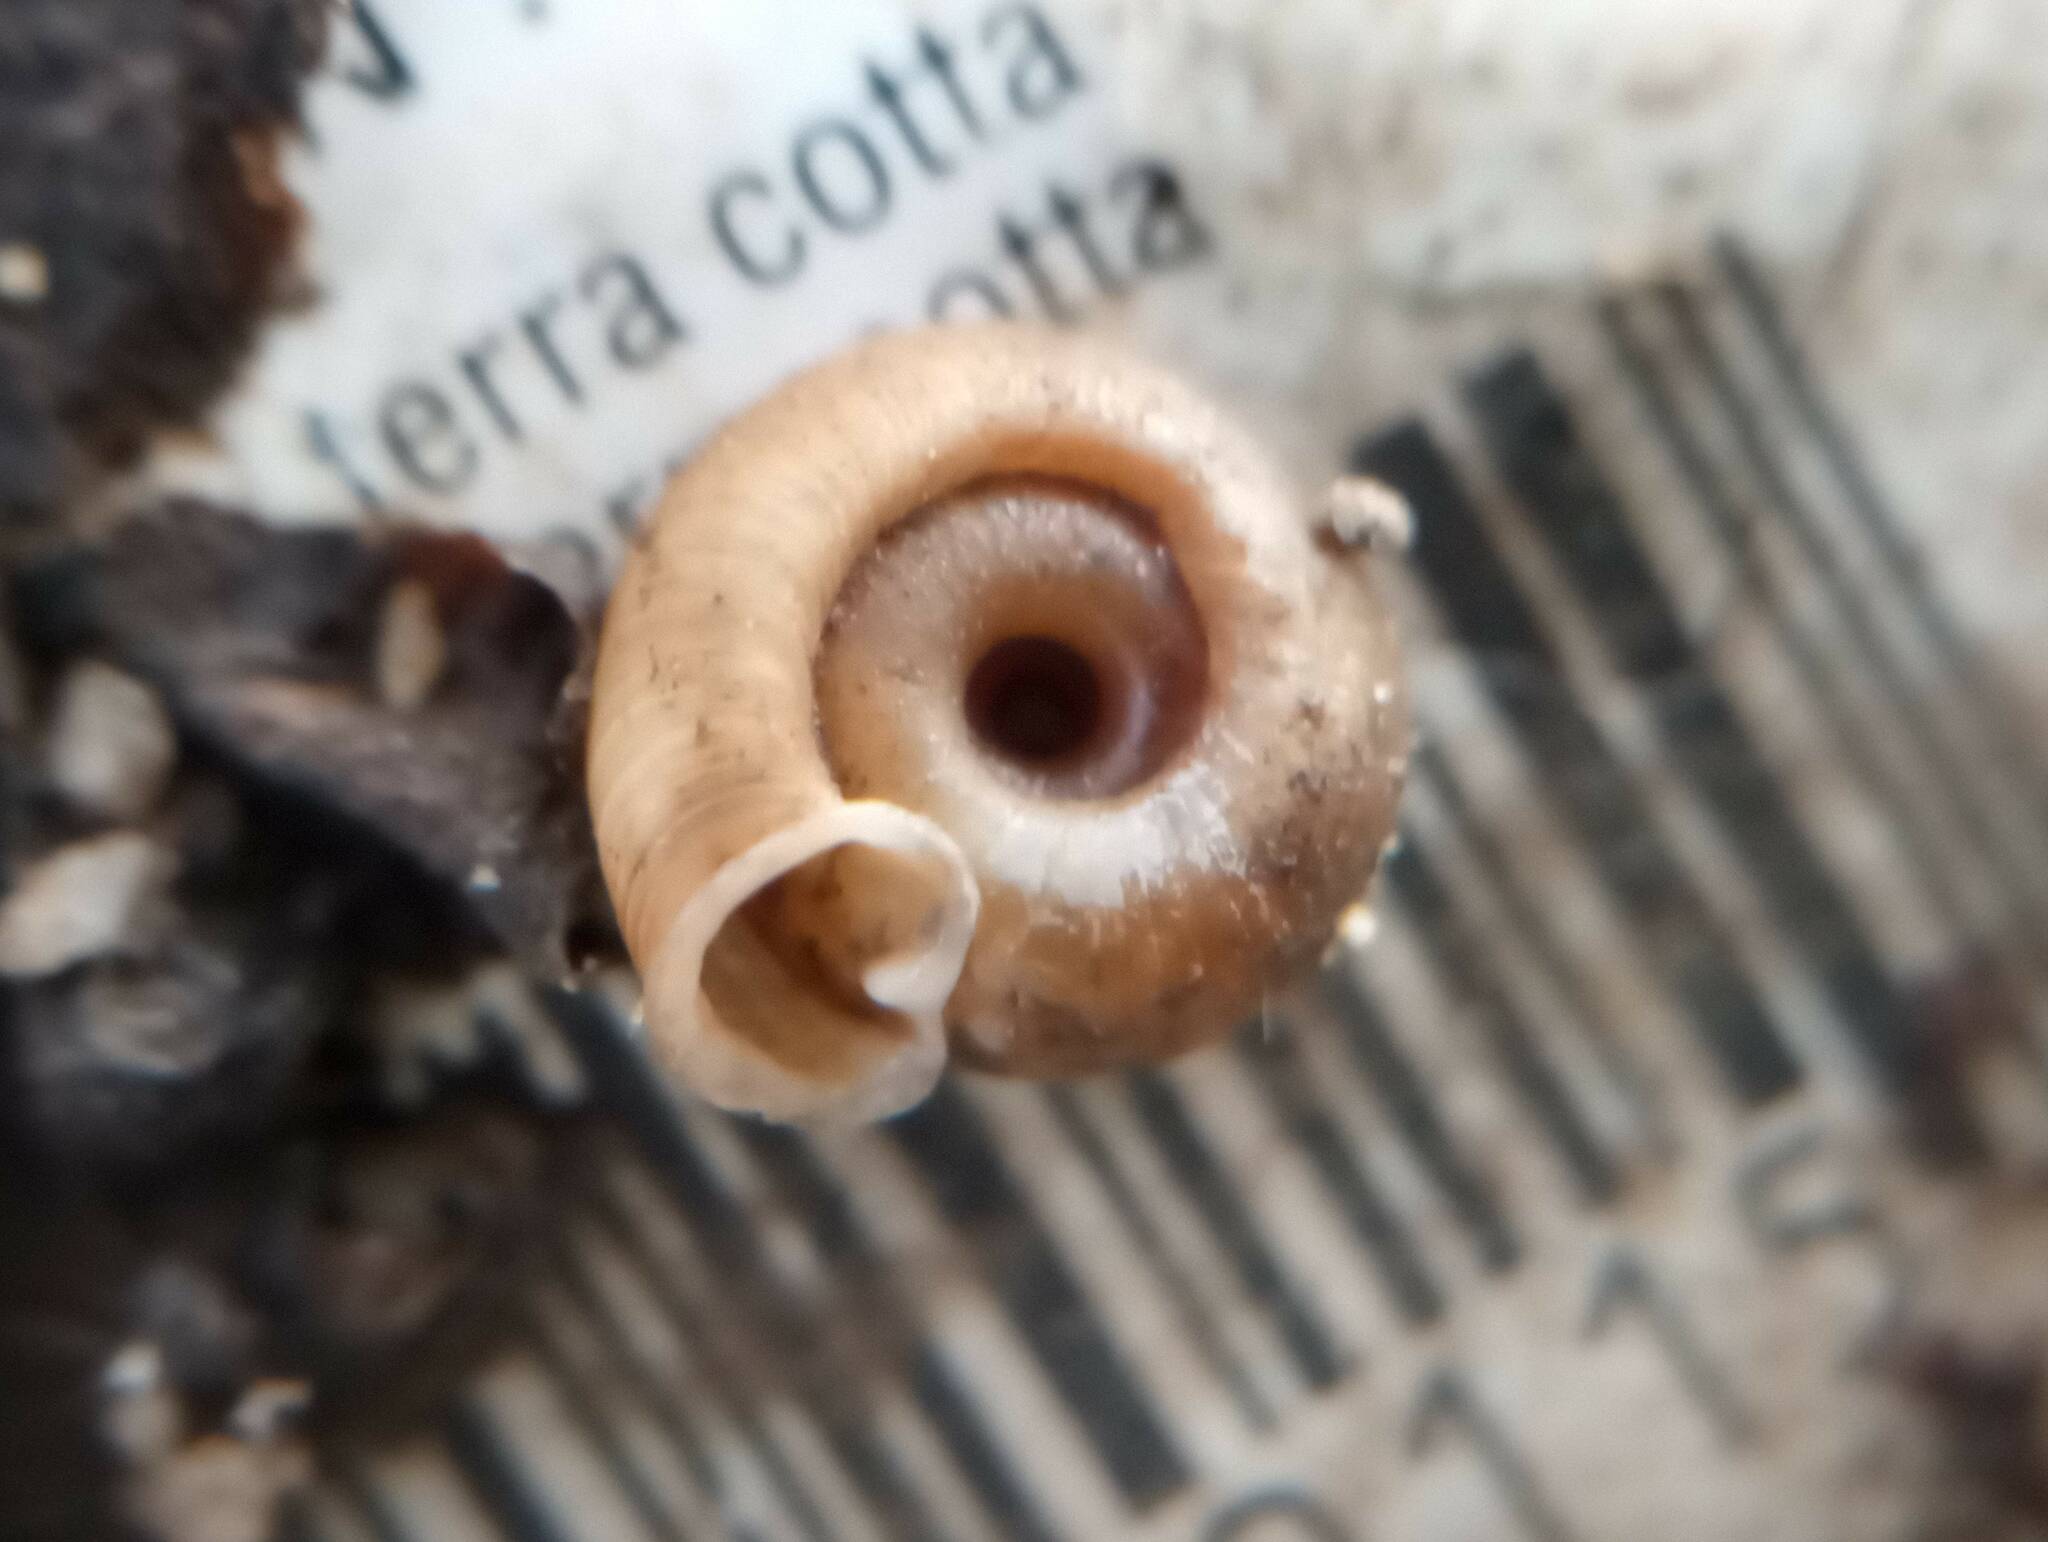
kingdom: Animalia
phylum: Mollusca
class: Gastropoda
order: Stylommatophora
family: Polygyridae
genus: Polygyra
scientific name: Polygyra cereolus
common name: Southern flatcone snail
